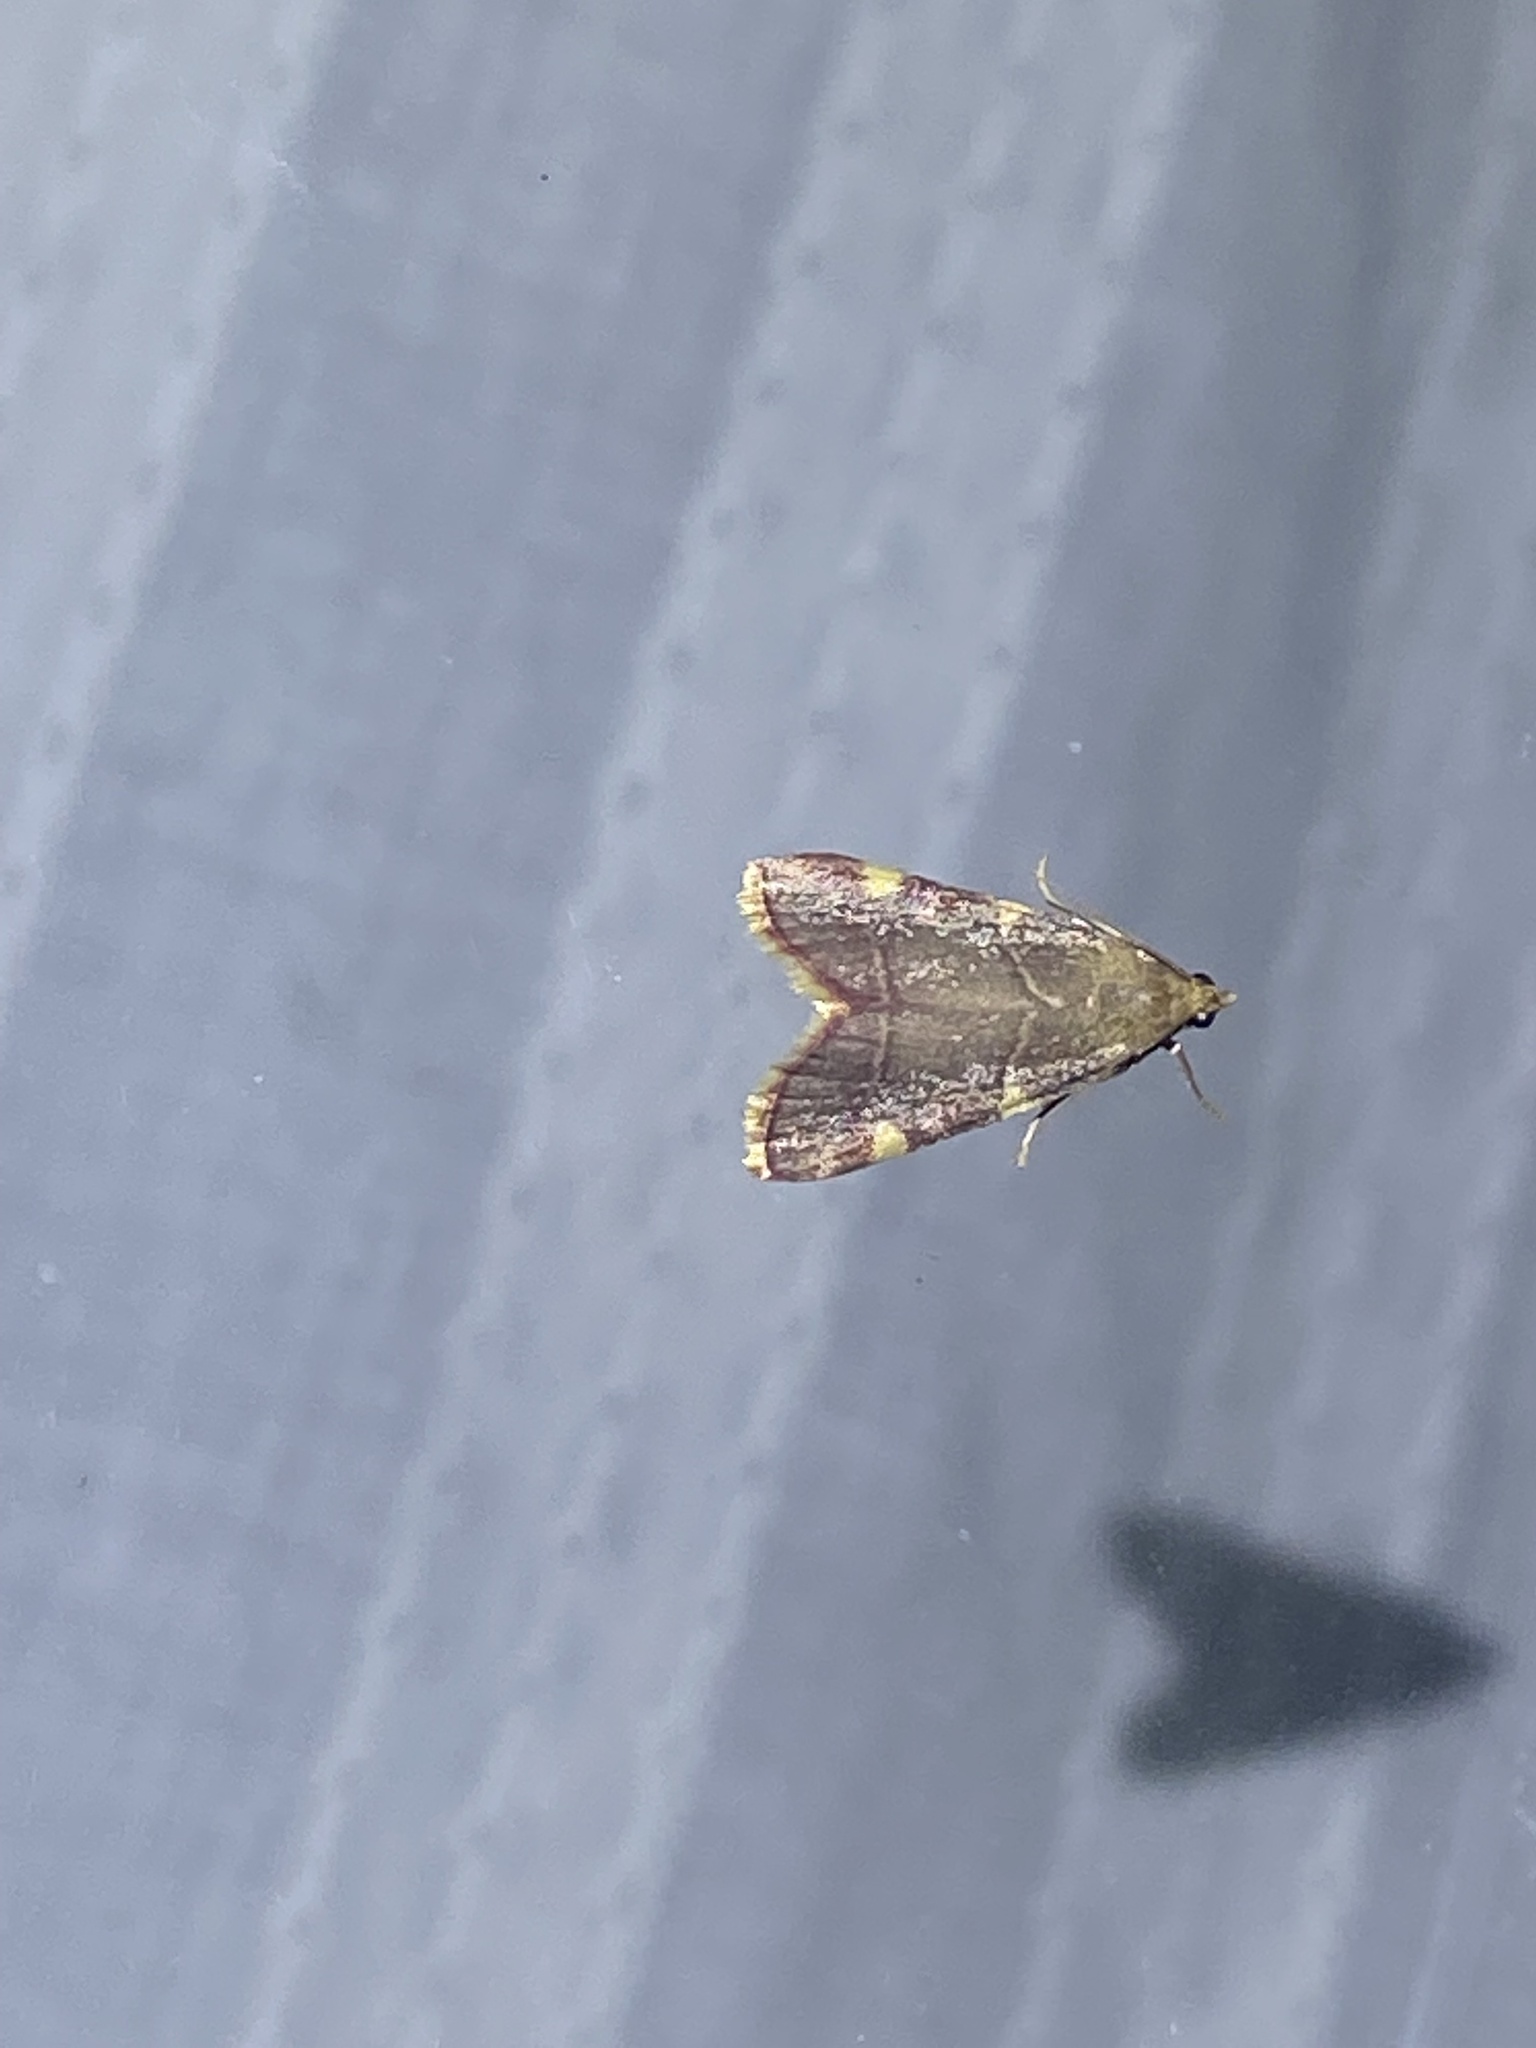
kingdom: Animalia
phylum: Arthropoda
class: Insecta
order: Lepidoptera
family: Pyralidae
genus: Hypsopygia
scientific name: Hypsopygia olinalis
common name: Yellow-fringed dolichomia moth
